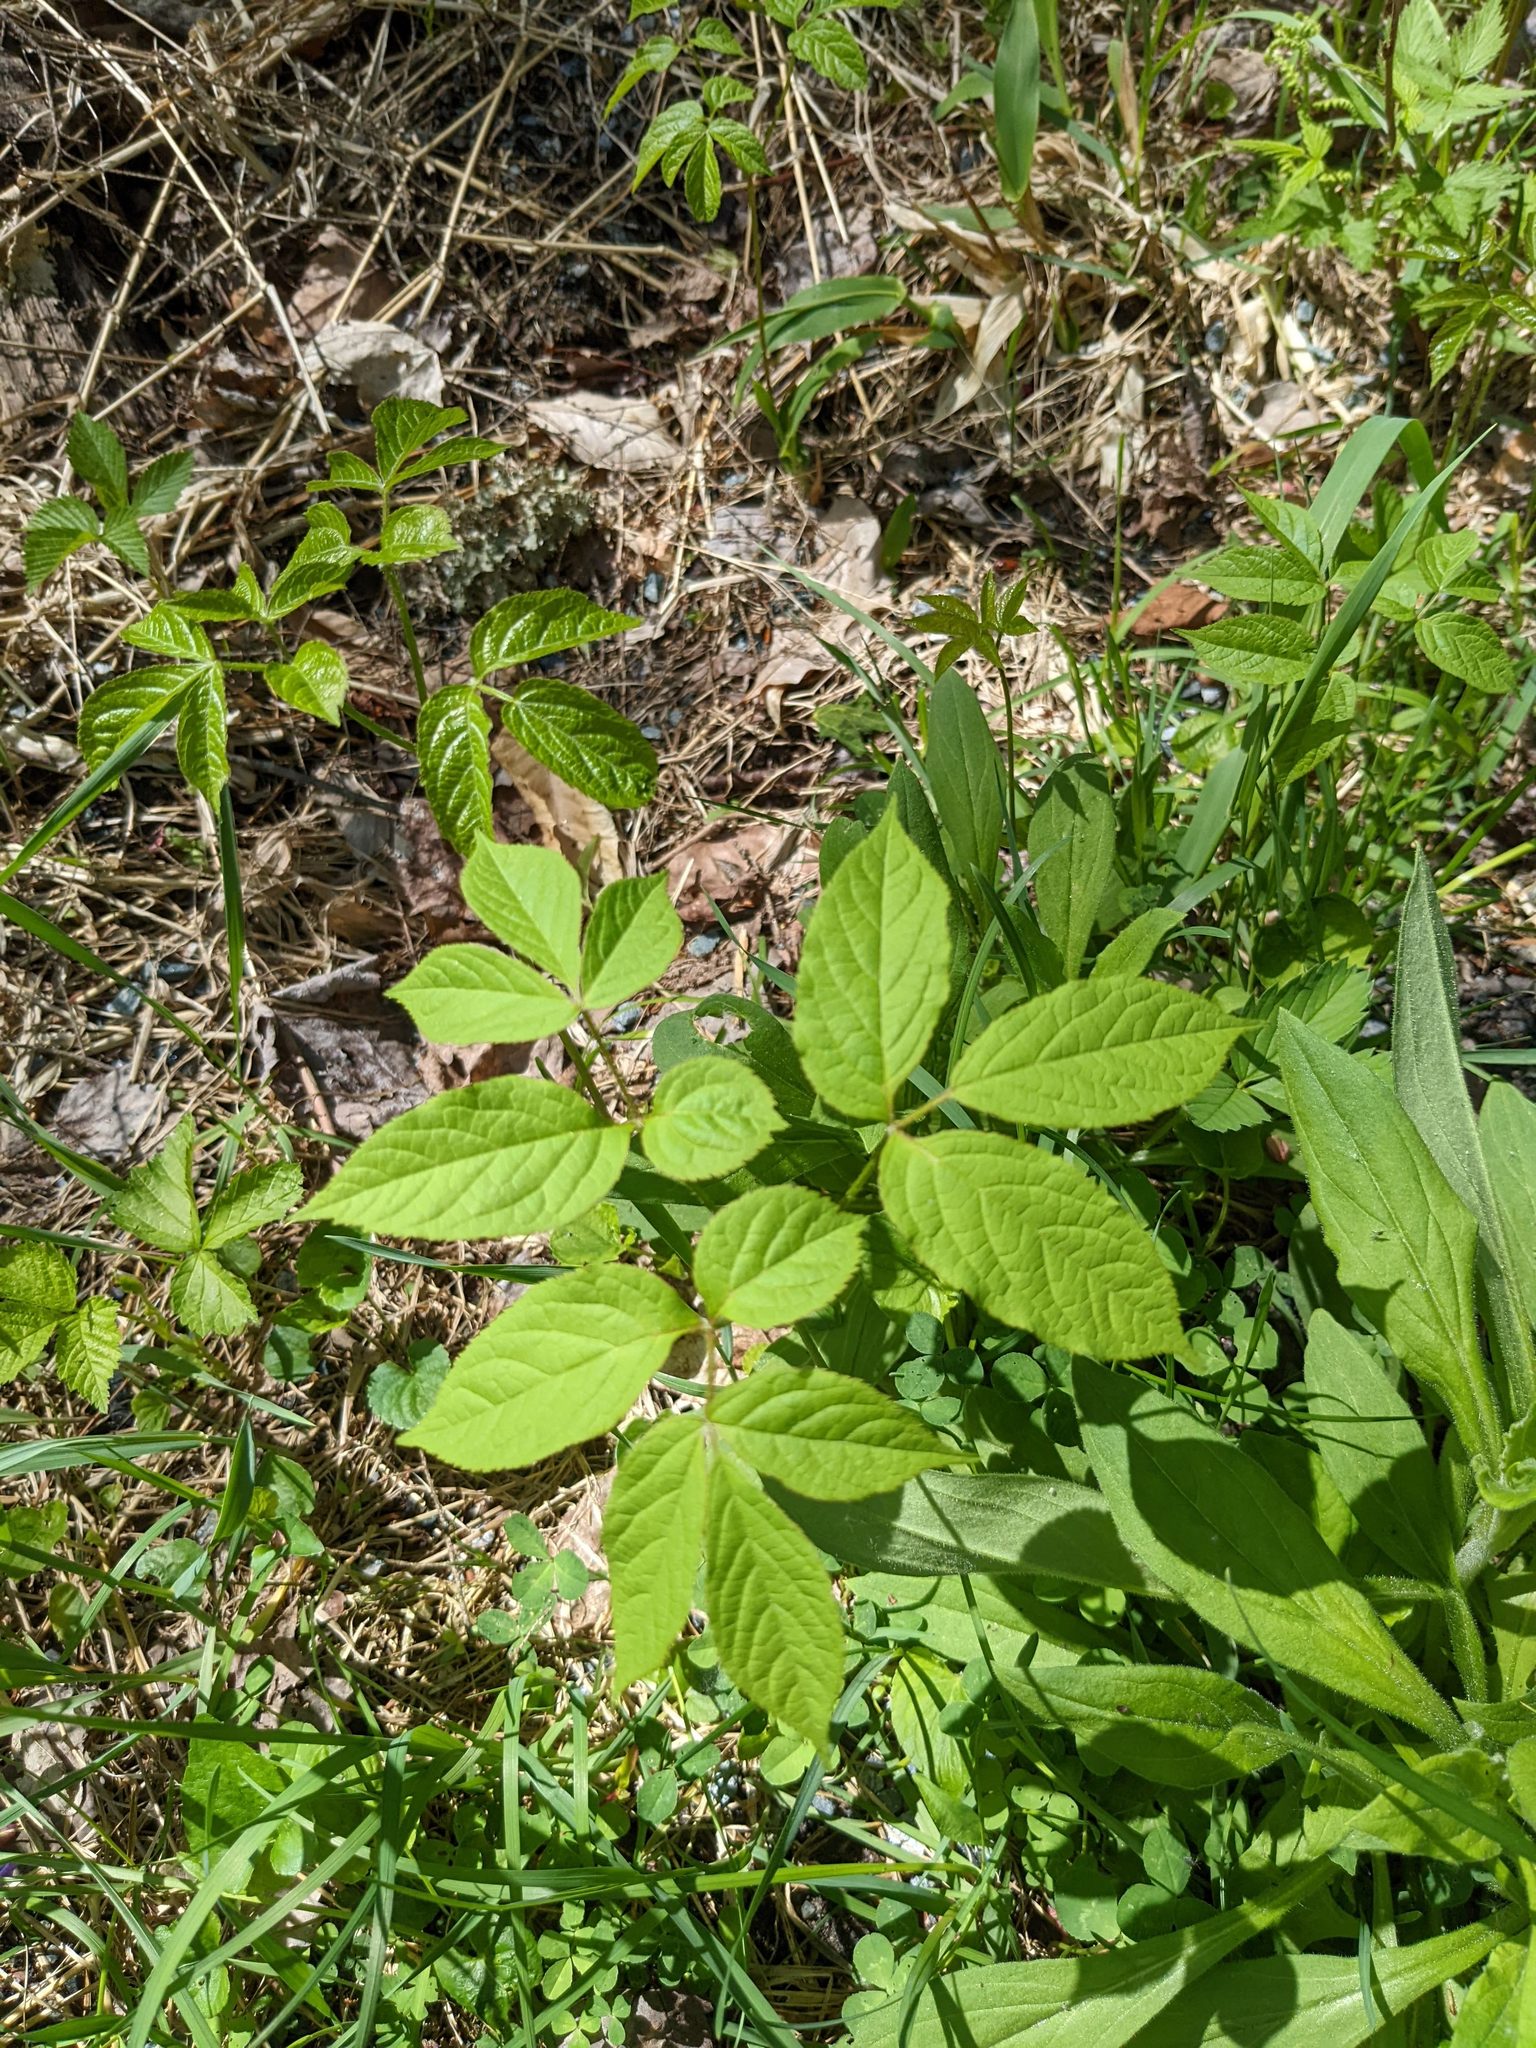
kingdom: Plantae
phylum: Tracheophyta
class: Magnoliopsida
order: Apiales
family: Araliaceae
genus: Aralia
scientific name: Aralia nudicaulis
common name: Wild sarsaparilla
